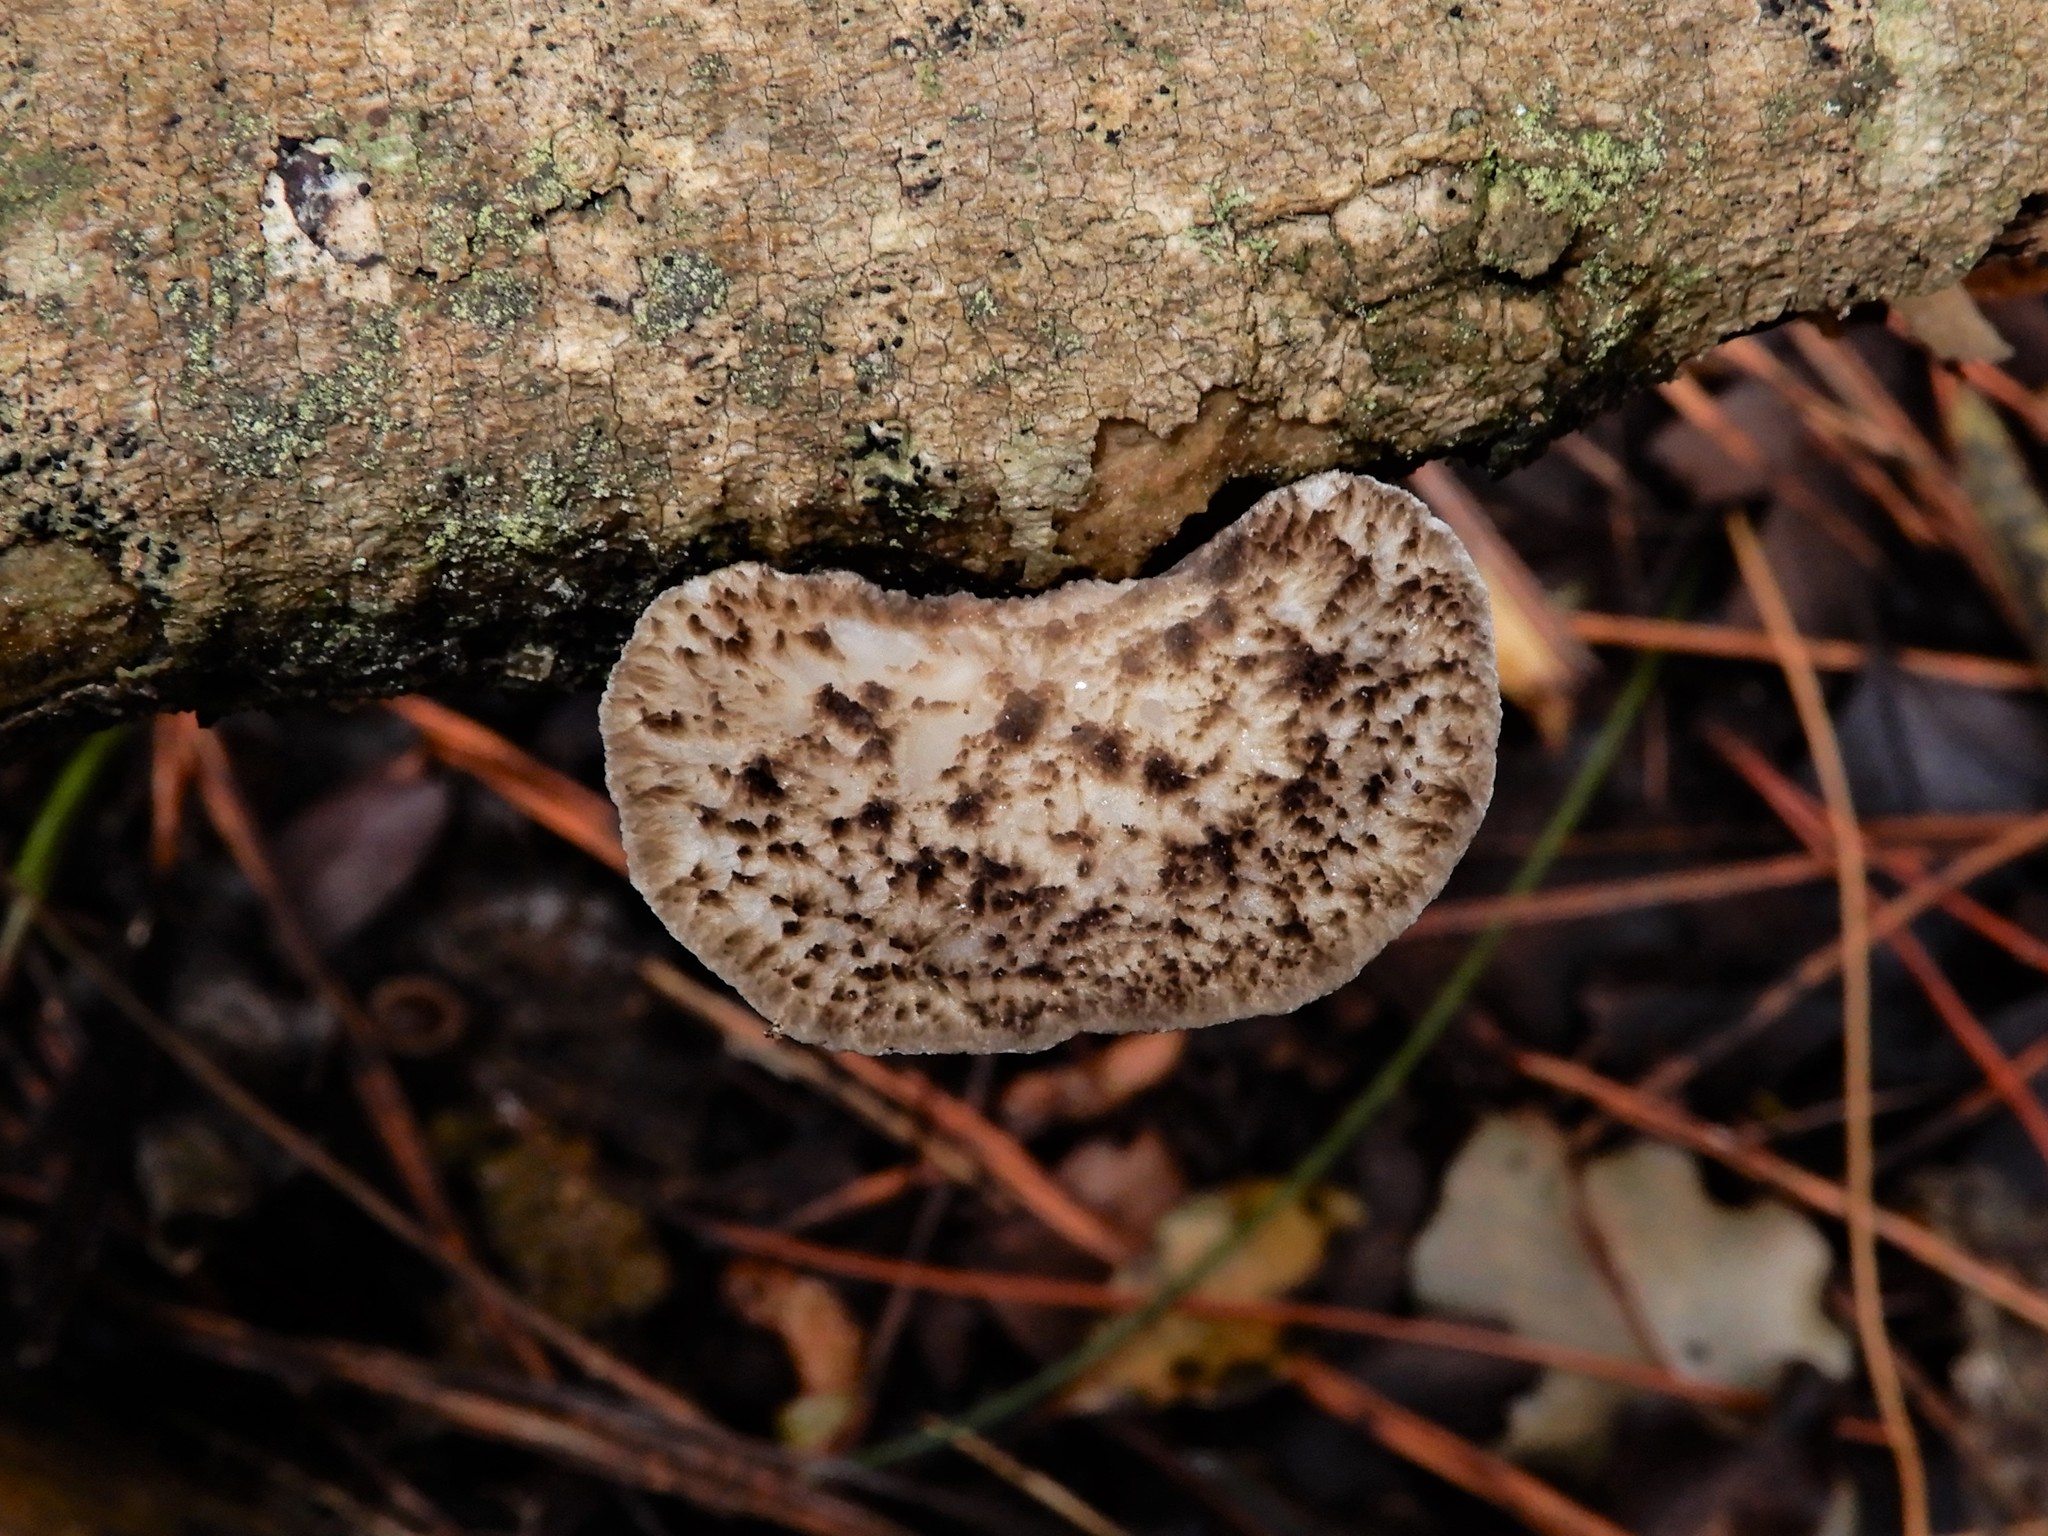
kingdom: Fungi
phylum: Basidiomycota
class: Agaricomycetes
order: Polyporales
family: Polyporaceae
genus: Bresadolia
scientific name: Bresadolia
